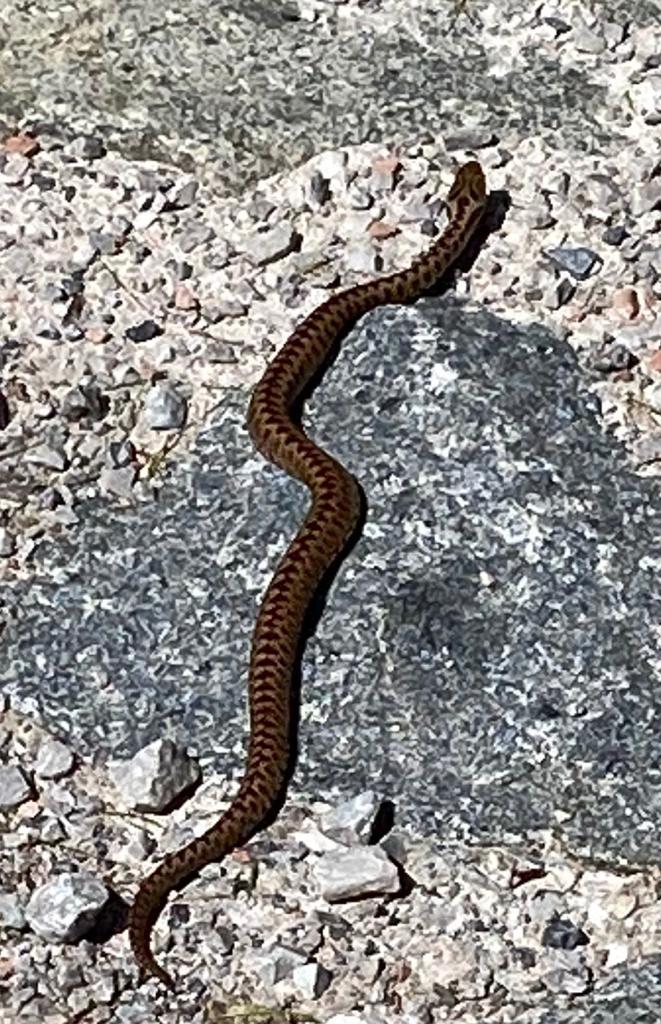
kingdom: Animalia
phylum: Chordata
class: Squamata
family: Viperidae
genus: Vipera
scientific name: Vipera berus
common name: Adder
